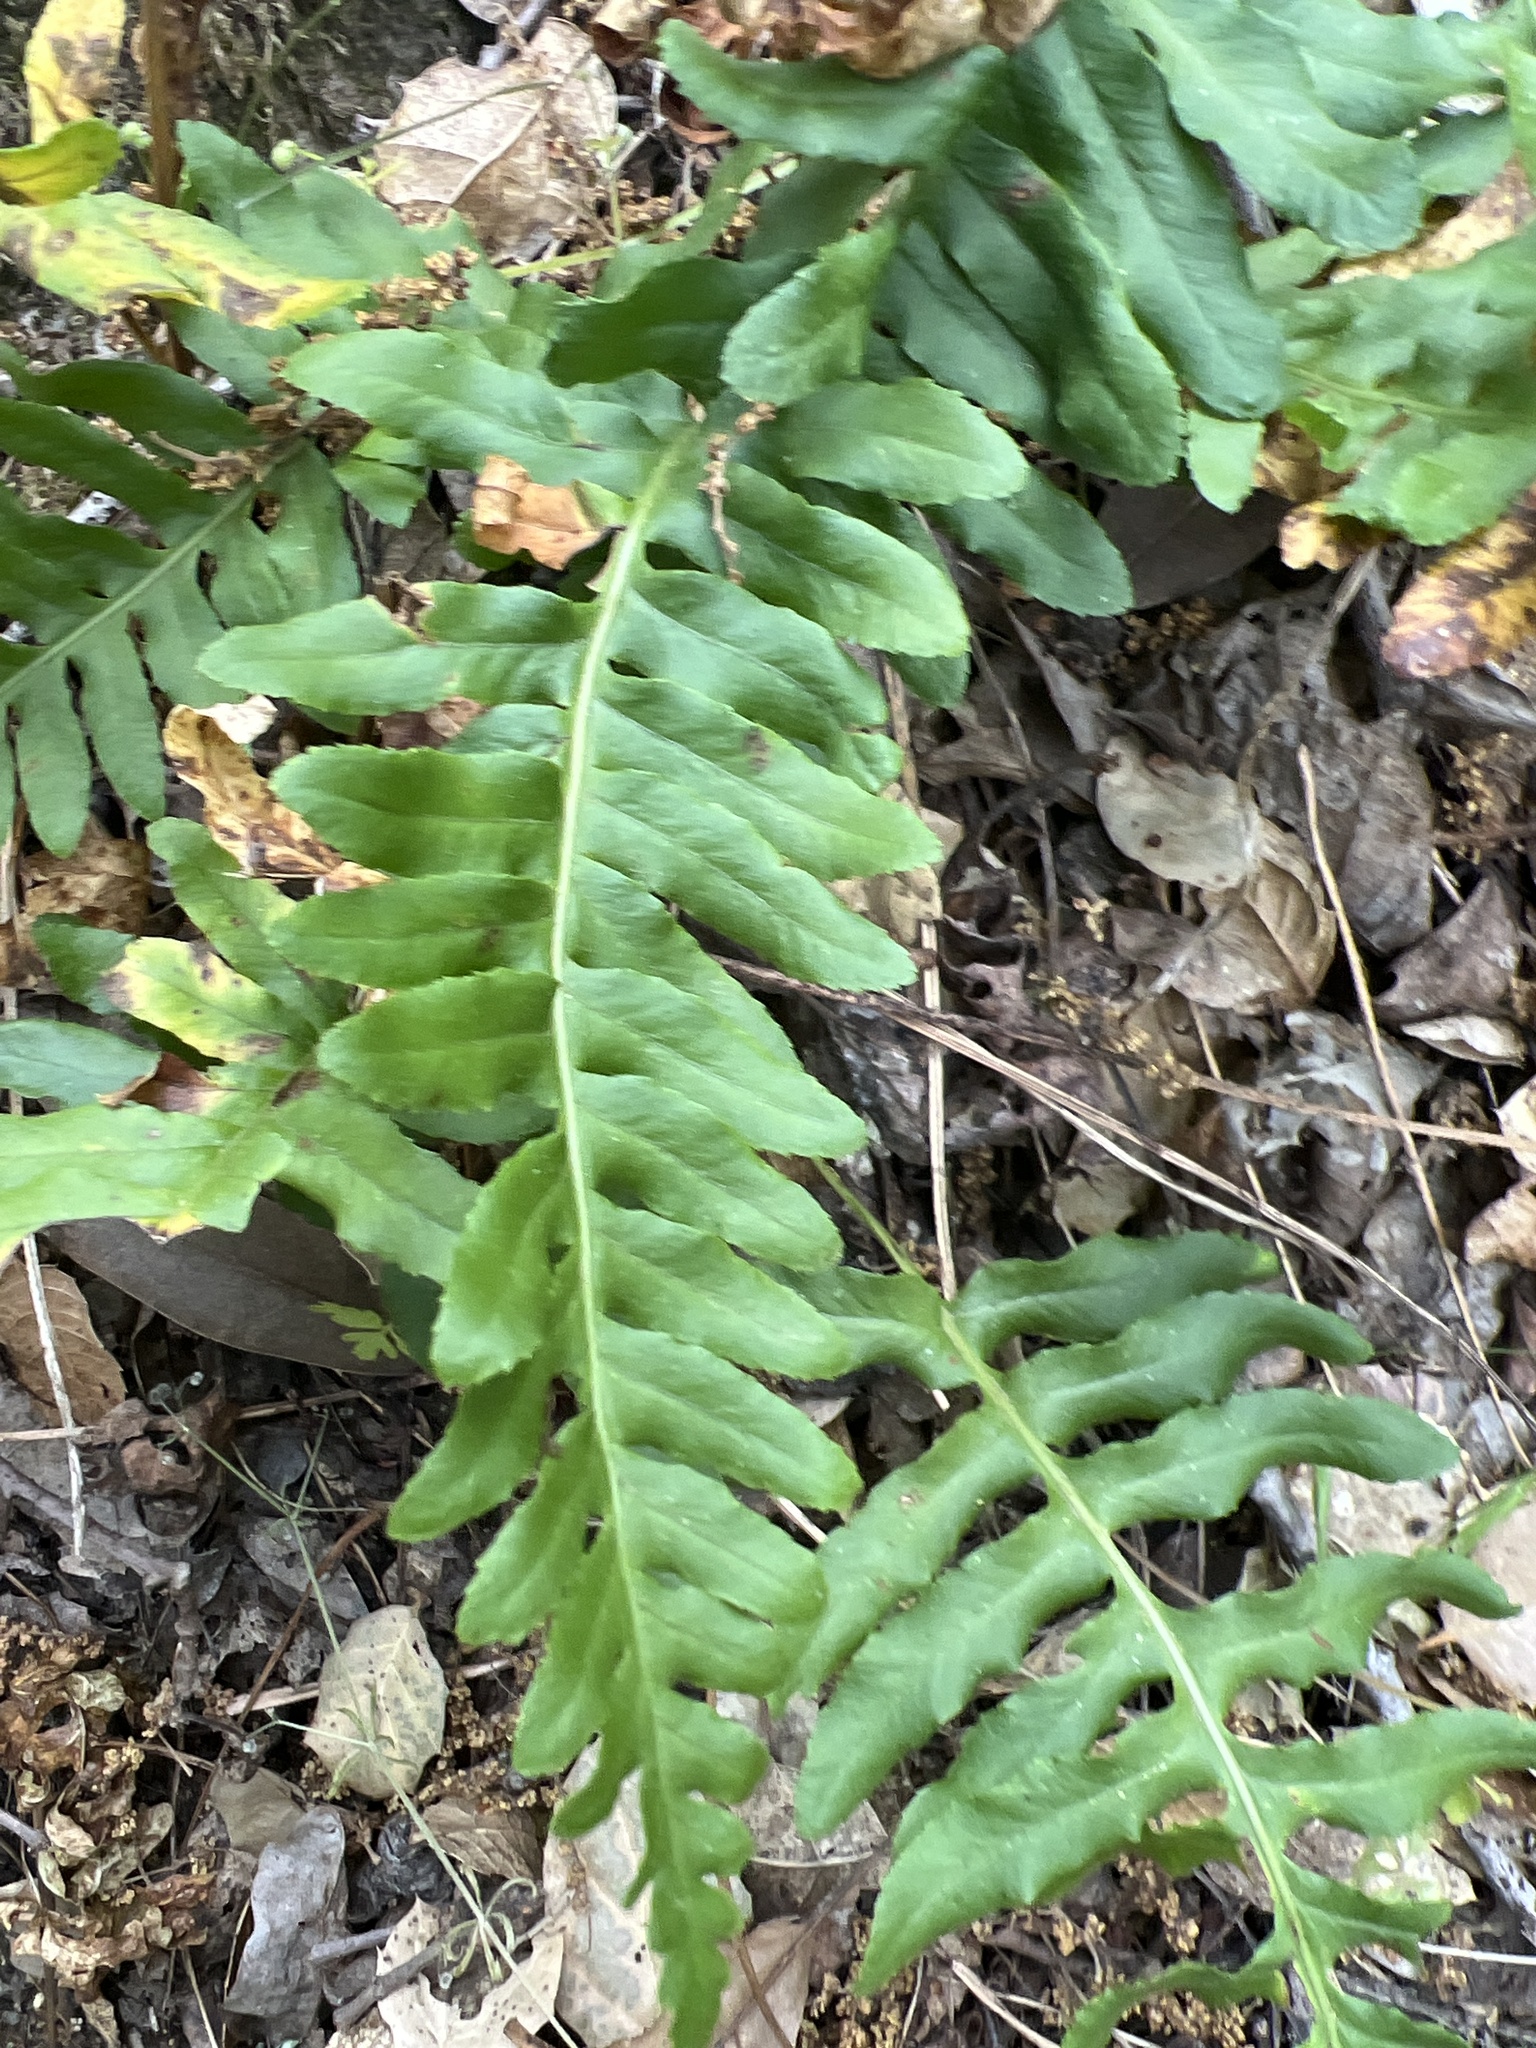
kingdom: Plantae
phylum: Tracheophyta
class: Polypodiopsida
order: Polypodiales
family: Polypodiaceae
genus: Polypodium
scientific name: Polypodium californicum
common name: California polypody
